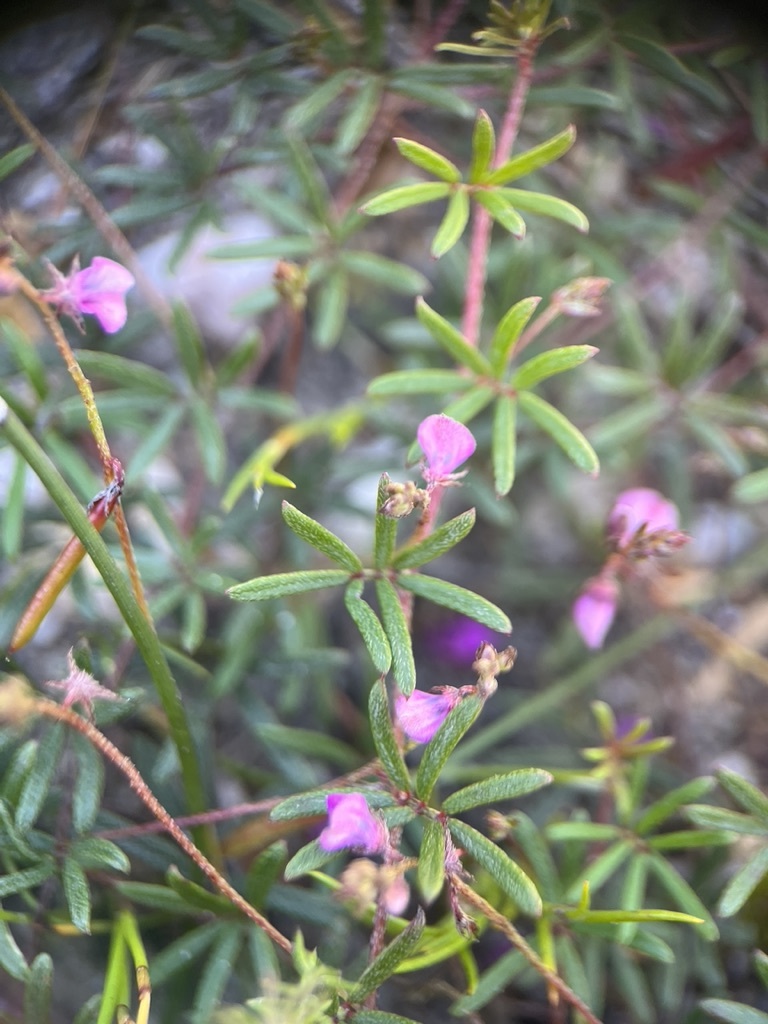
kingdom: Plantae
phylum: Tracheophyta
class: Magnoliopsida
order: Fabales
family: Fabaceae
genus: Indigofera
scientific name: Indigofera angustifolia
